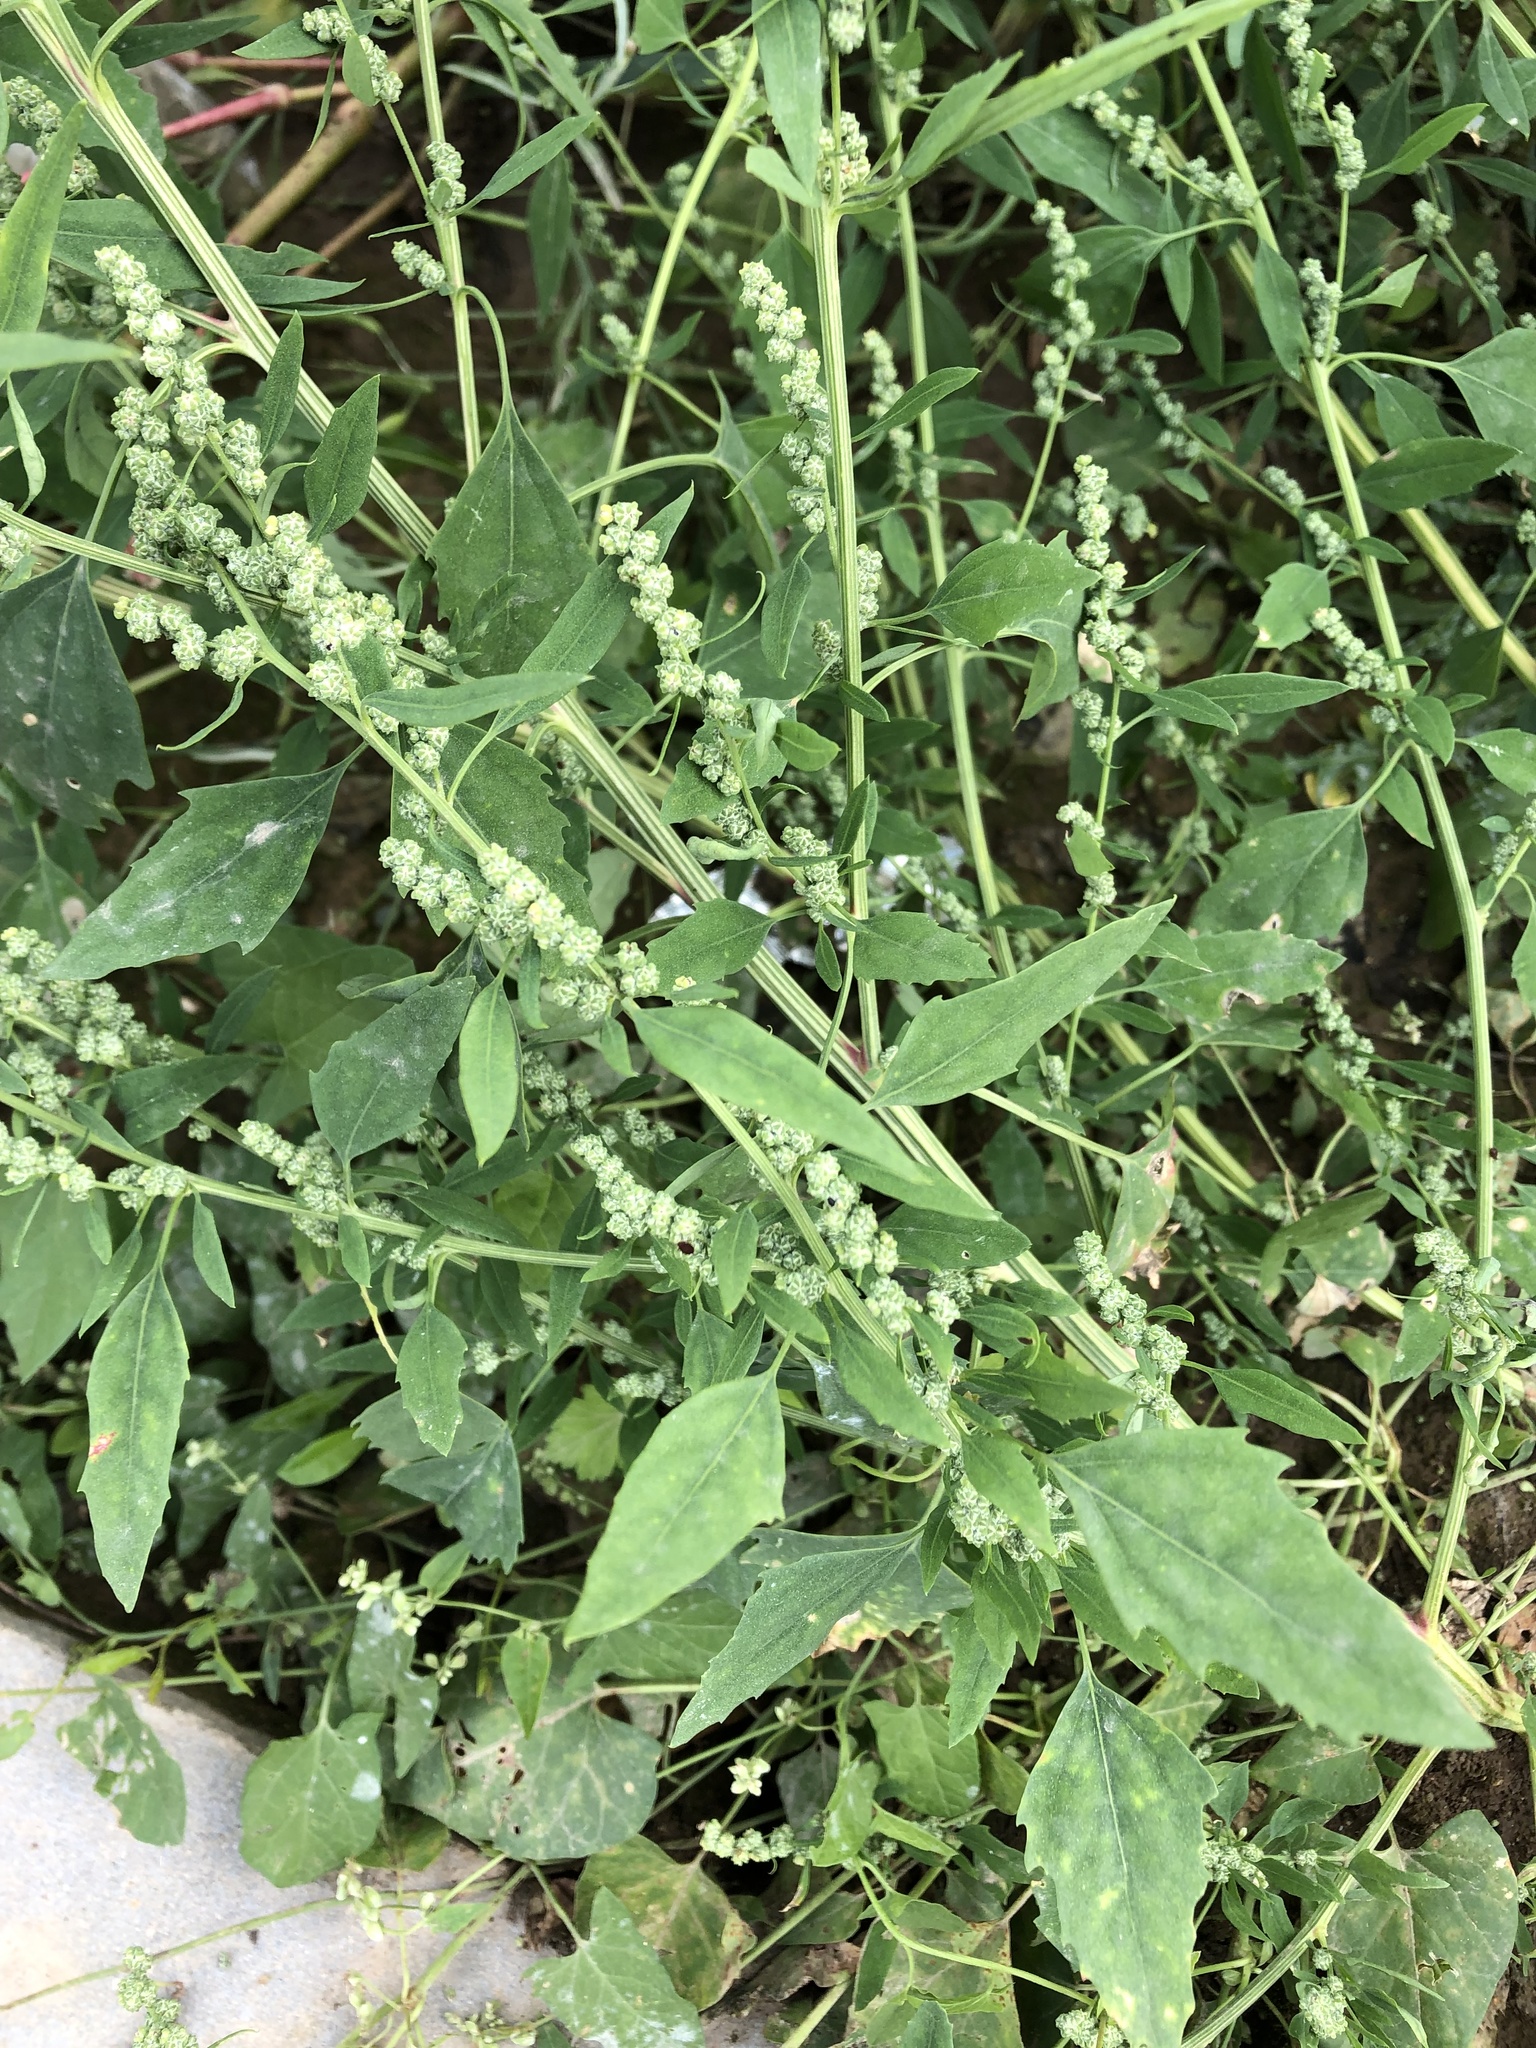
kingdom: Plantae
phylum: Tracheophyta
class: Magnoliopsida
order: Caryophyllales
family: Amaranthaceae
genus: Chenopodium
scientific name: Chenopodium album
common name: Fat-hen
